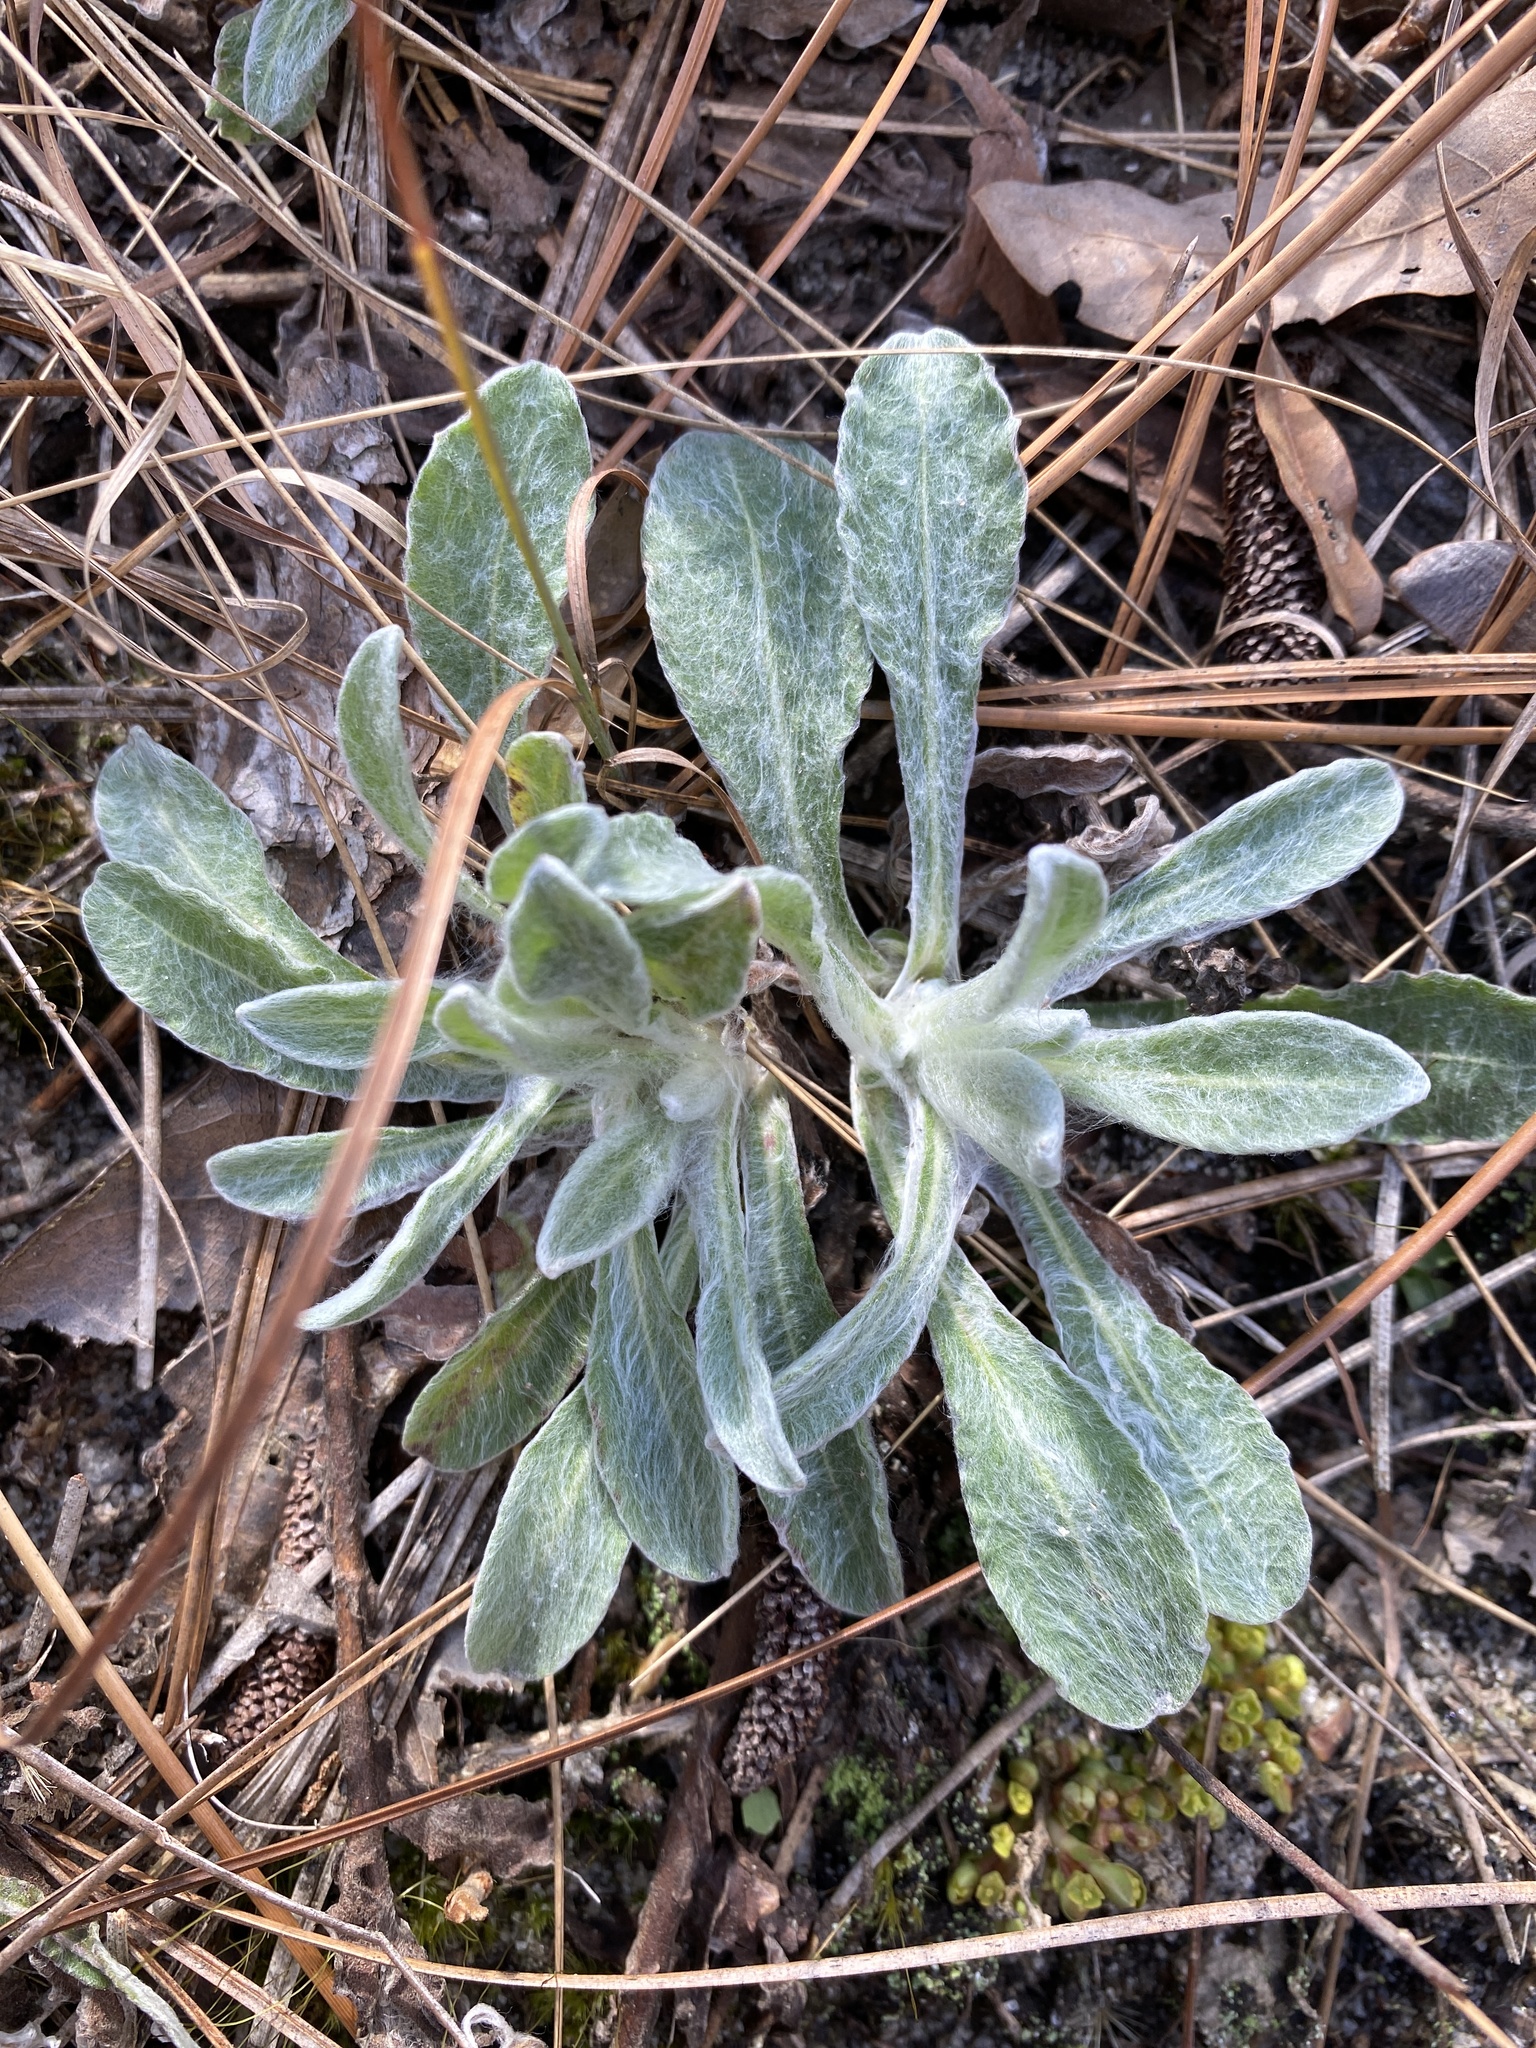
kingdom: Plantae
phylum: Tracheophyta
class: Magnoliopsida
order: Asterales
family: Asteraceae
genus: Chrysopsis
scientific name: Chrysopsis gossypina
